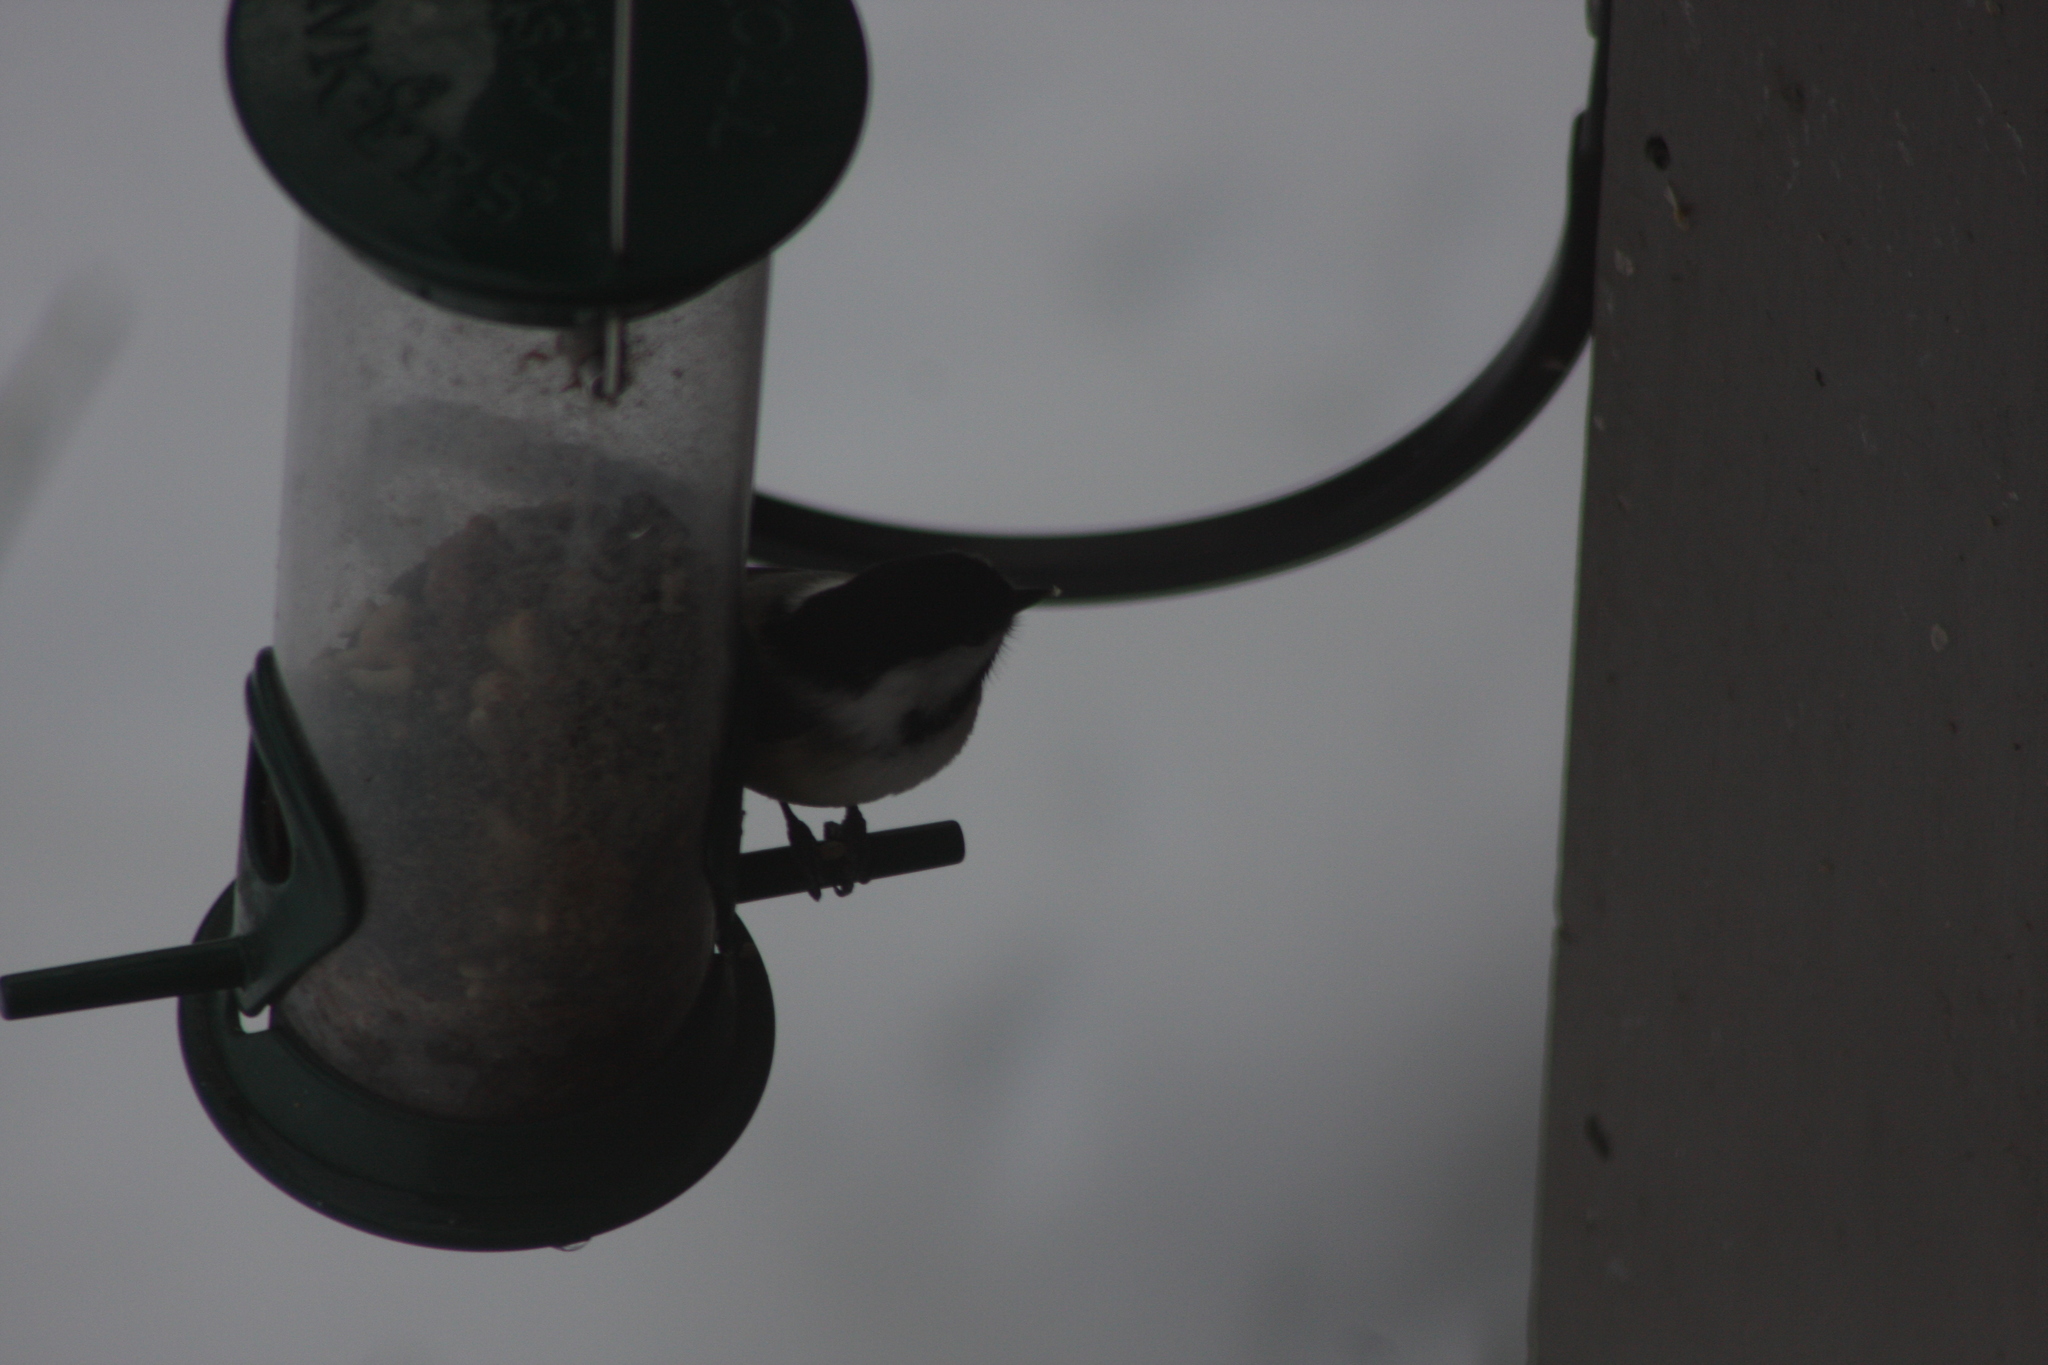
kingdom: Animalia
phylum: Chordata
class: Aves
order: Passeriformes
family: Paridae
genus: Poecile
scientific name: Poecile atricapillus
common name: Black-capped chickadee
